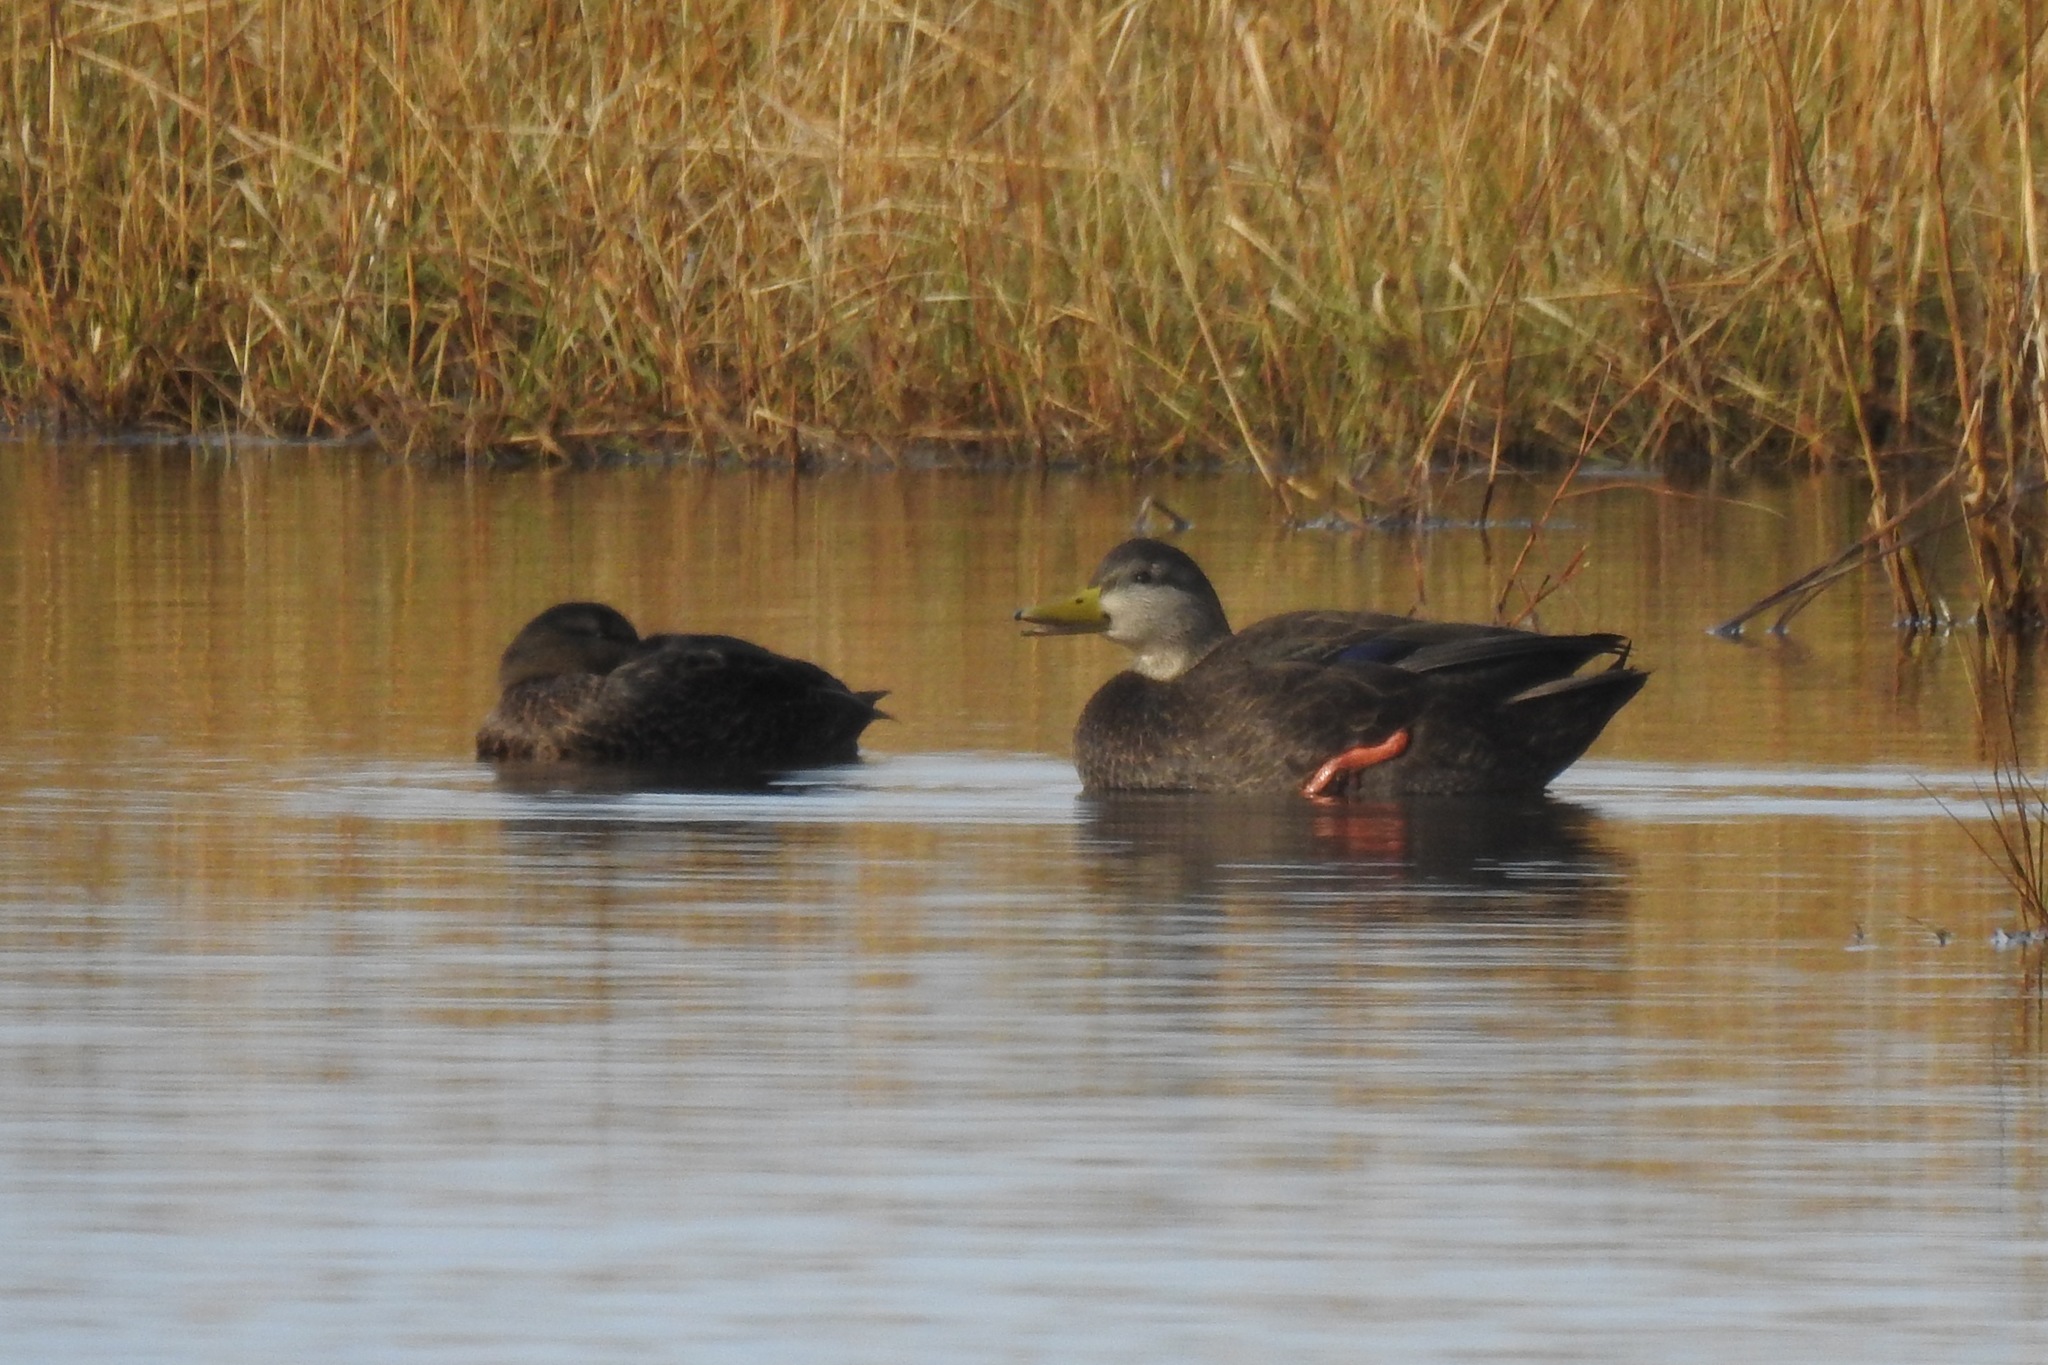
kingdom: Animalia
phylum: Chordata
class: Aves
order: Anseriformes
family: Anatidae
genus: Anas
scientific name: Anas rubripes
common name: American black duck
